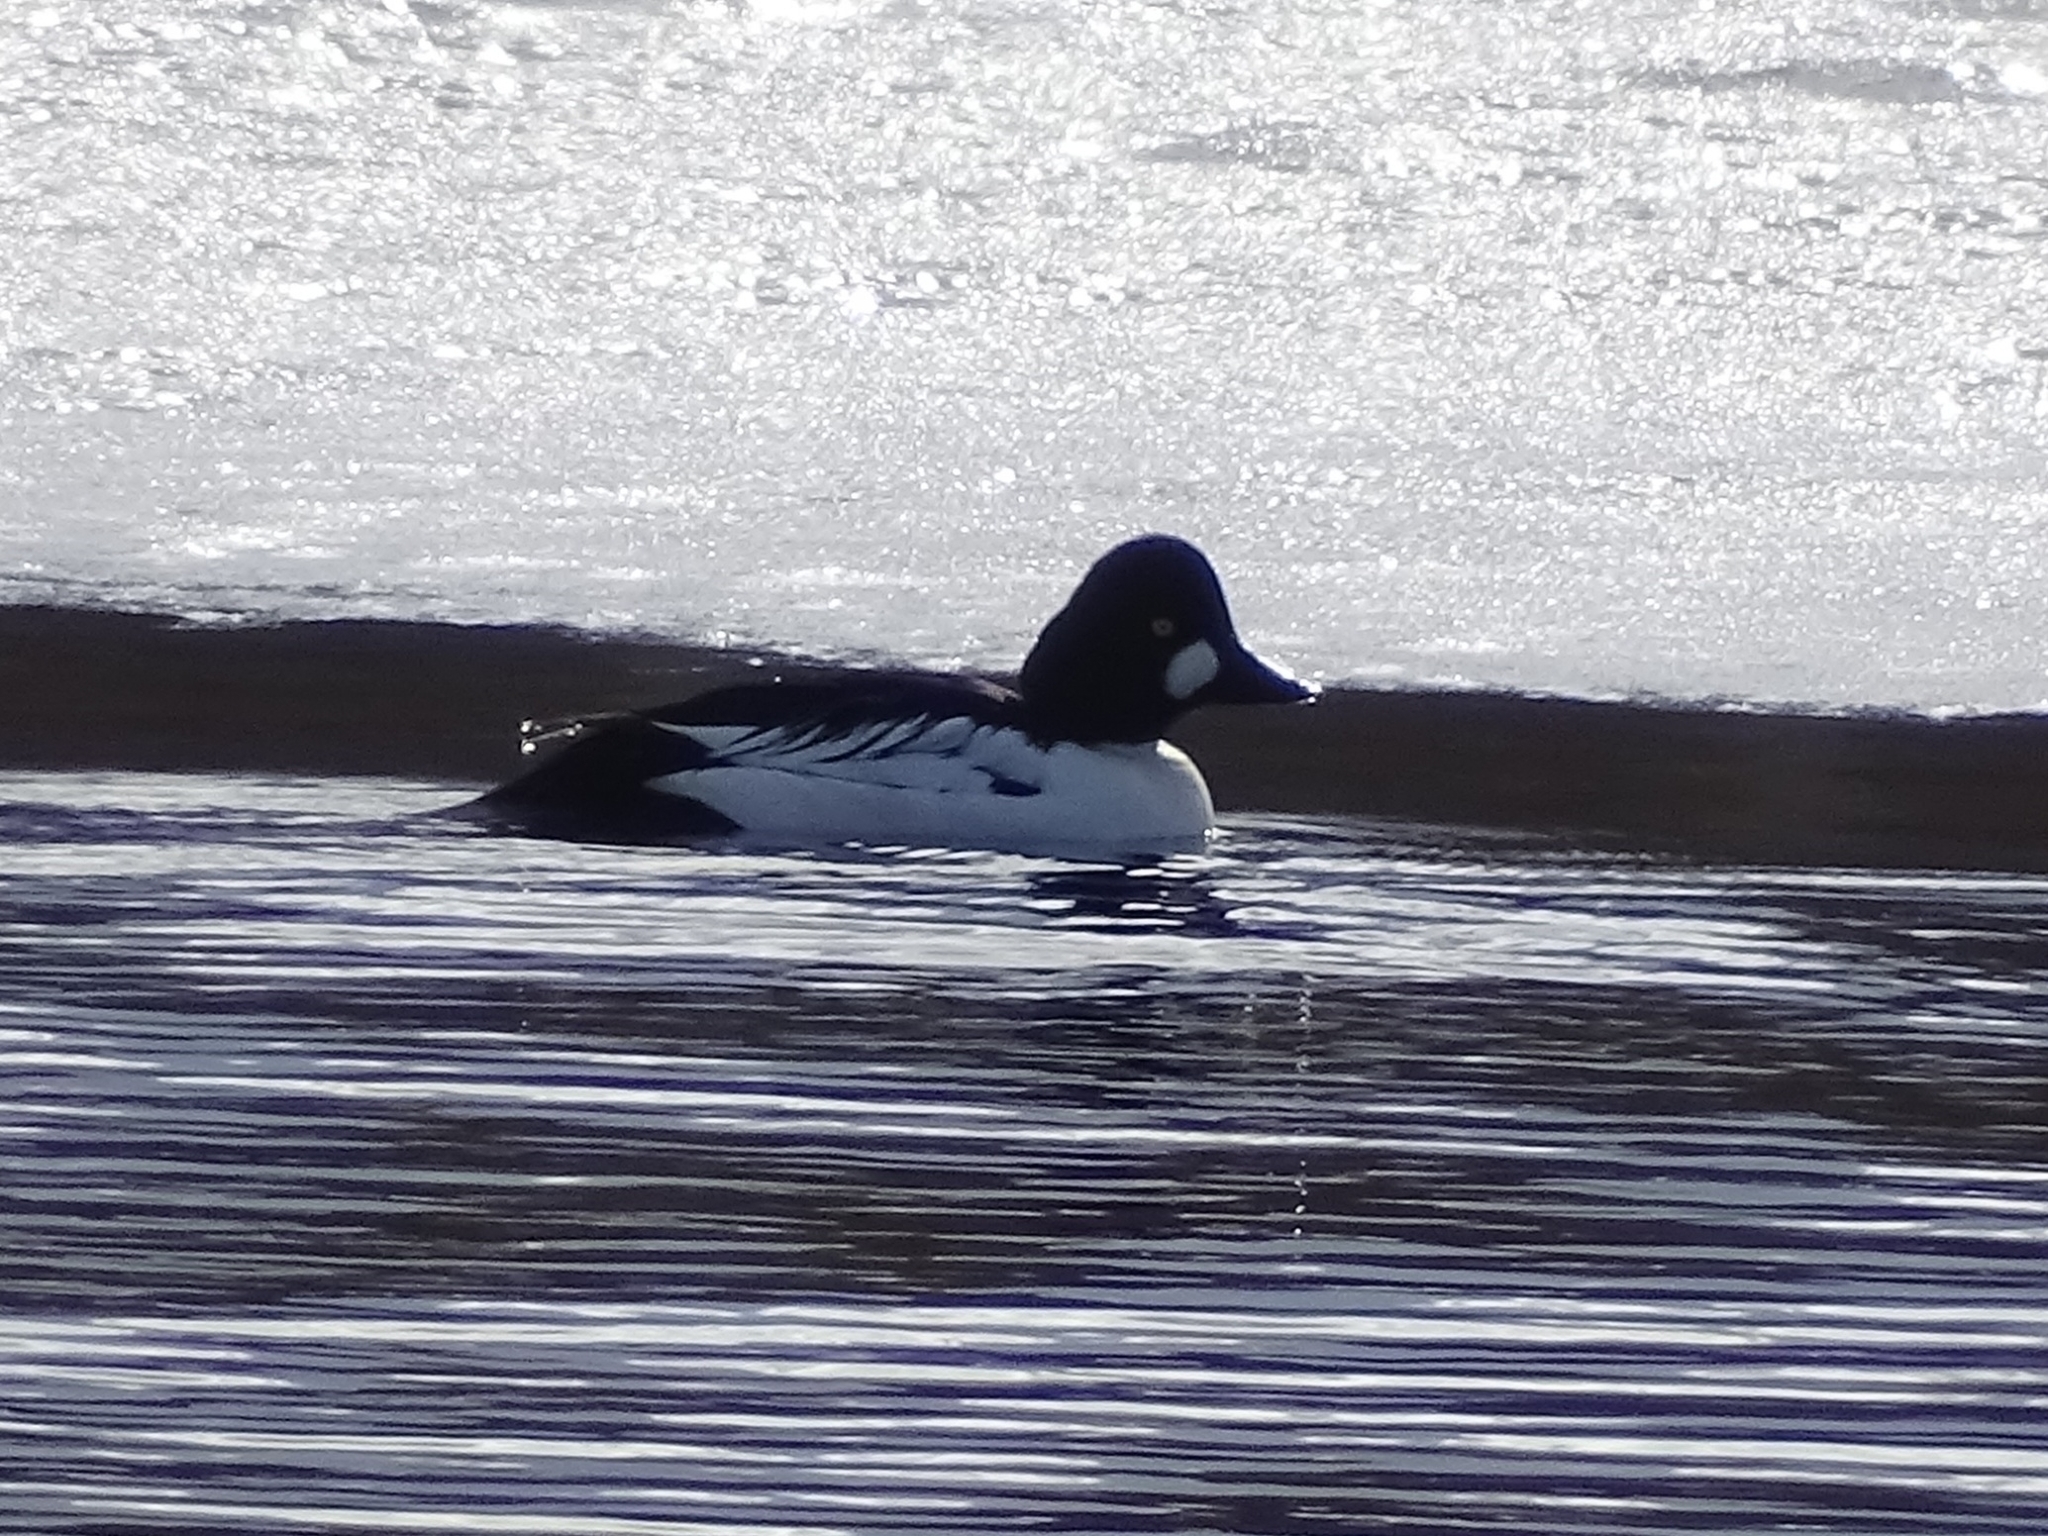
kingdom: Animalia
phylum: Chordata
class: Aves
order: Anseriformes
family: Anatidae
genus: Bucephala
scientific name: Bucephala clangula
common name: Common goldeneye
